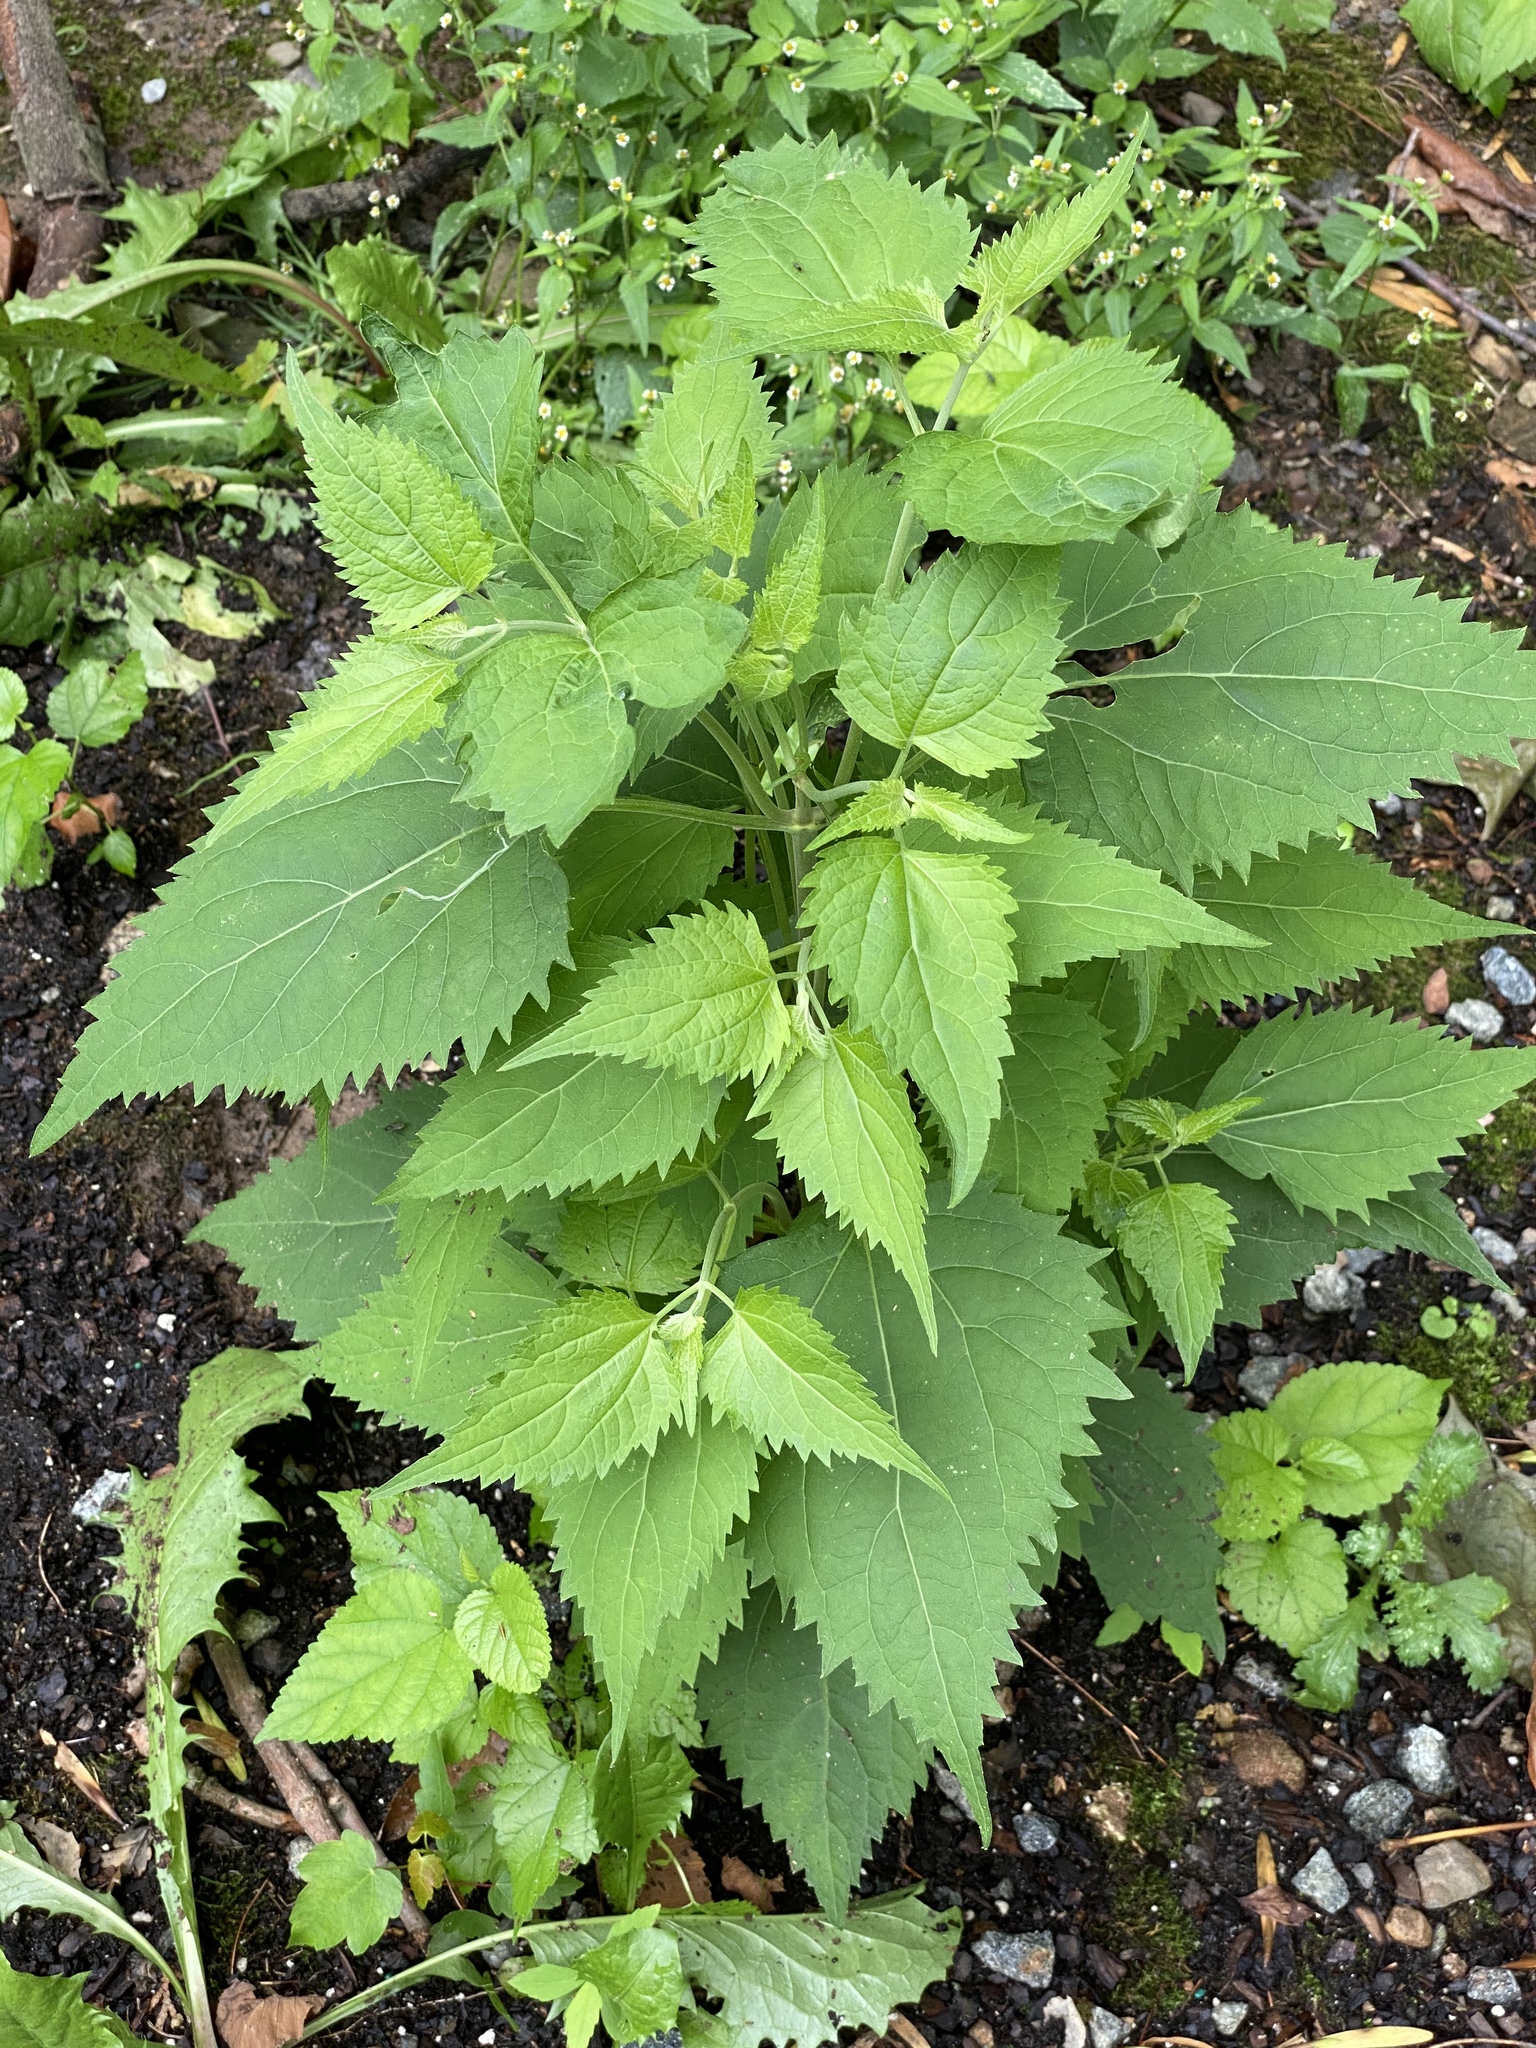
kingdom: Plantae
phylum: Tracheophyta
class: Magnoliopsida
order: Asterales
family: Asteraceae
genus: Ageratina
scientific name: Ageratina altissima
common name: White snakeroot
